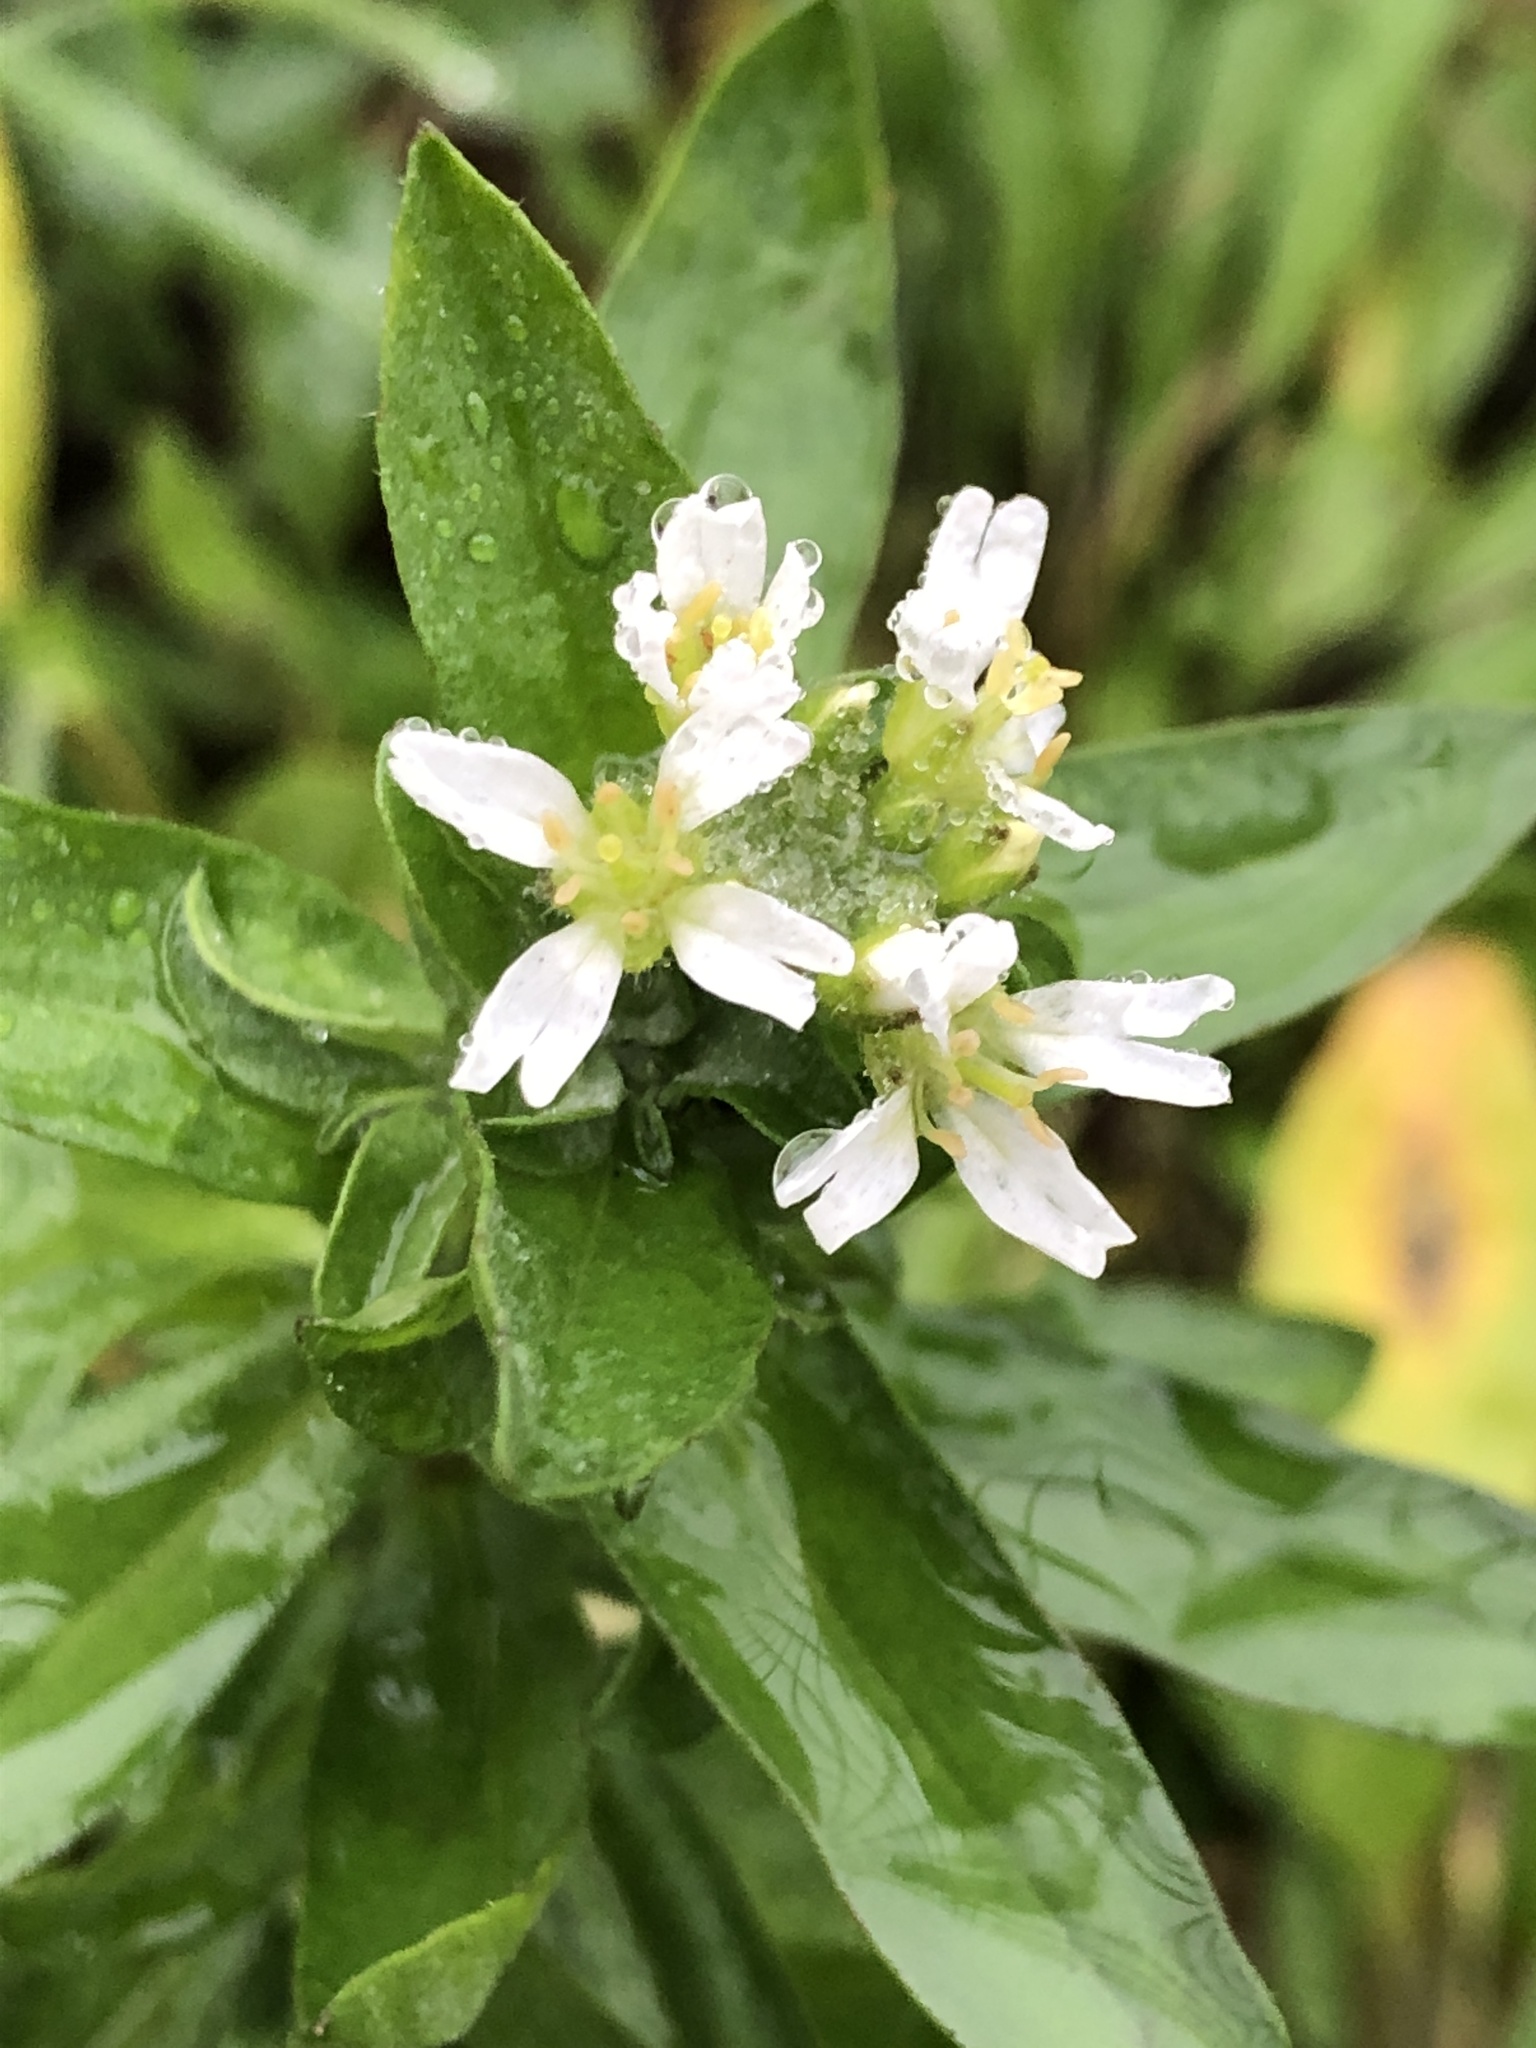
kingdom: Plantae
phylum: Tracheophyta
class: Magnoliopsida
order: Brassicales
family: Brassicaceae
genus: Berteroa
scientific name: Berteroa incana
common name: Hoary alison
